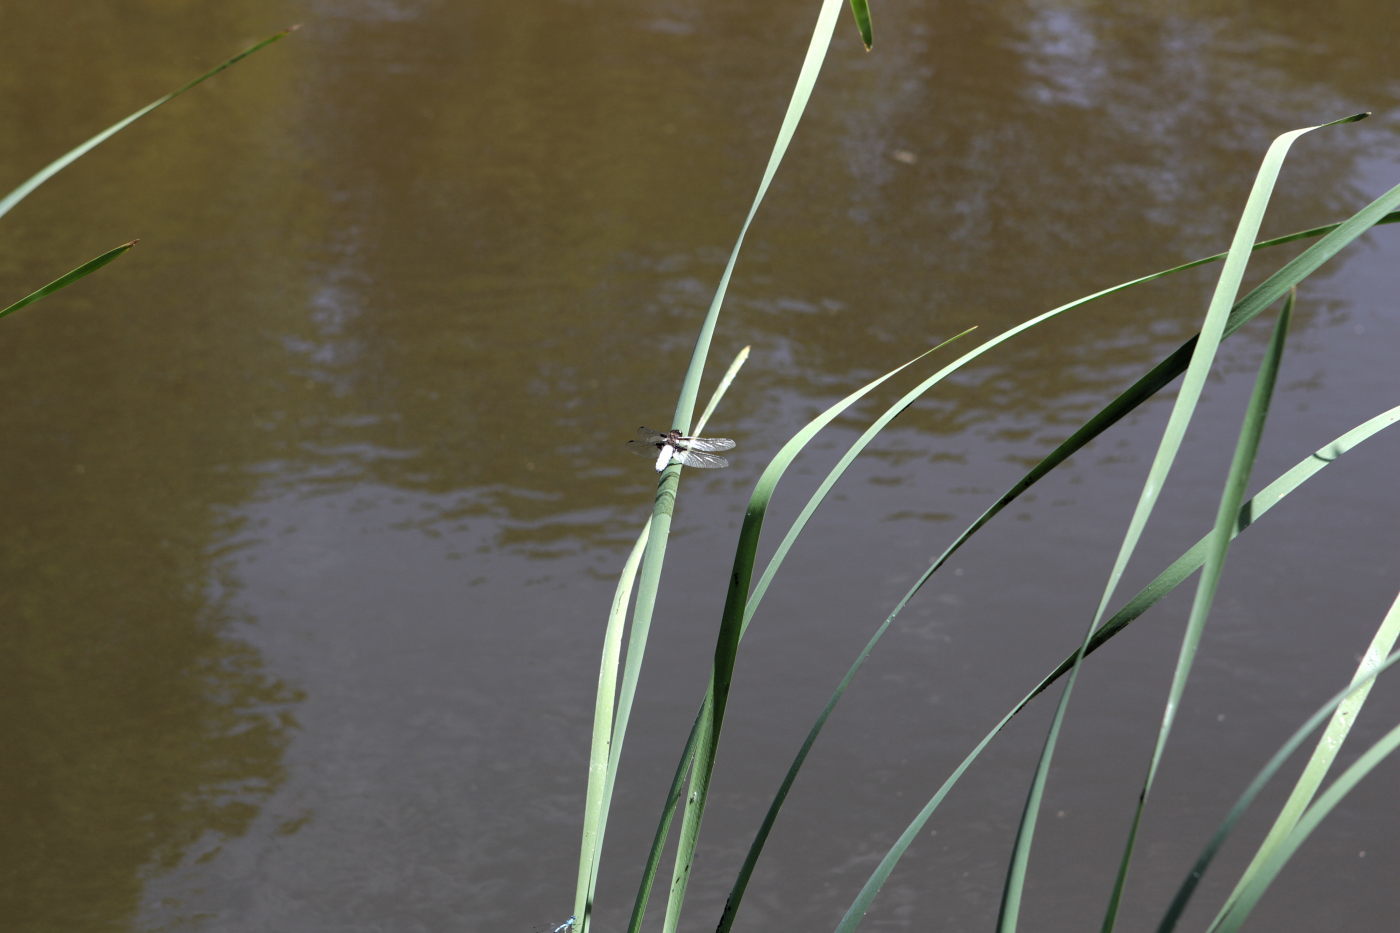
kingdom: Animalia
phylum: Arthropoda
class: Insecta
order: Odonata
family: Libellulidae
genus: Libellula
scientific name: Libellula depressa
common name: Broad-bodied chaser
